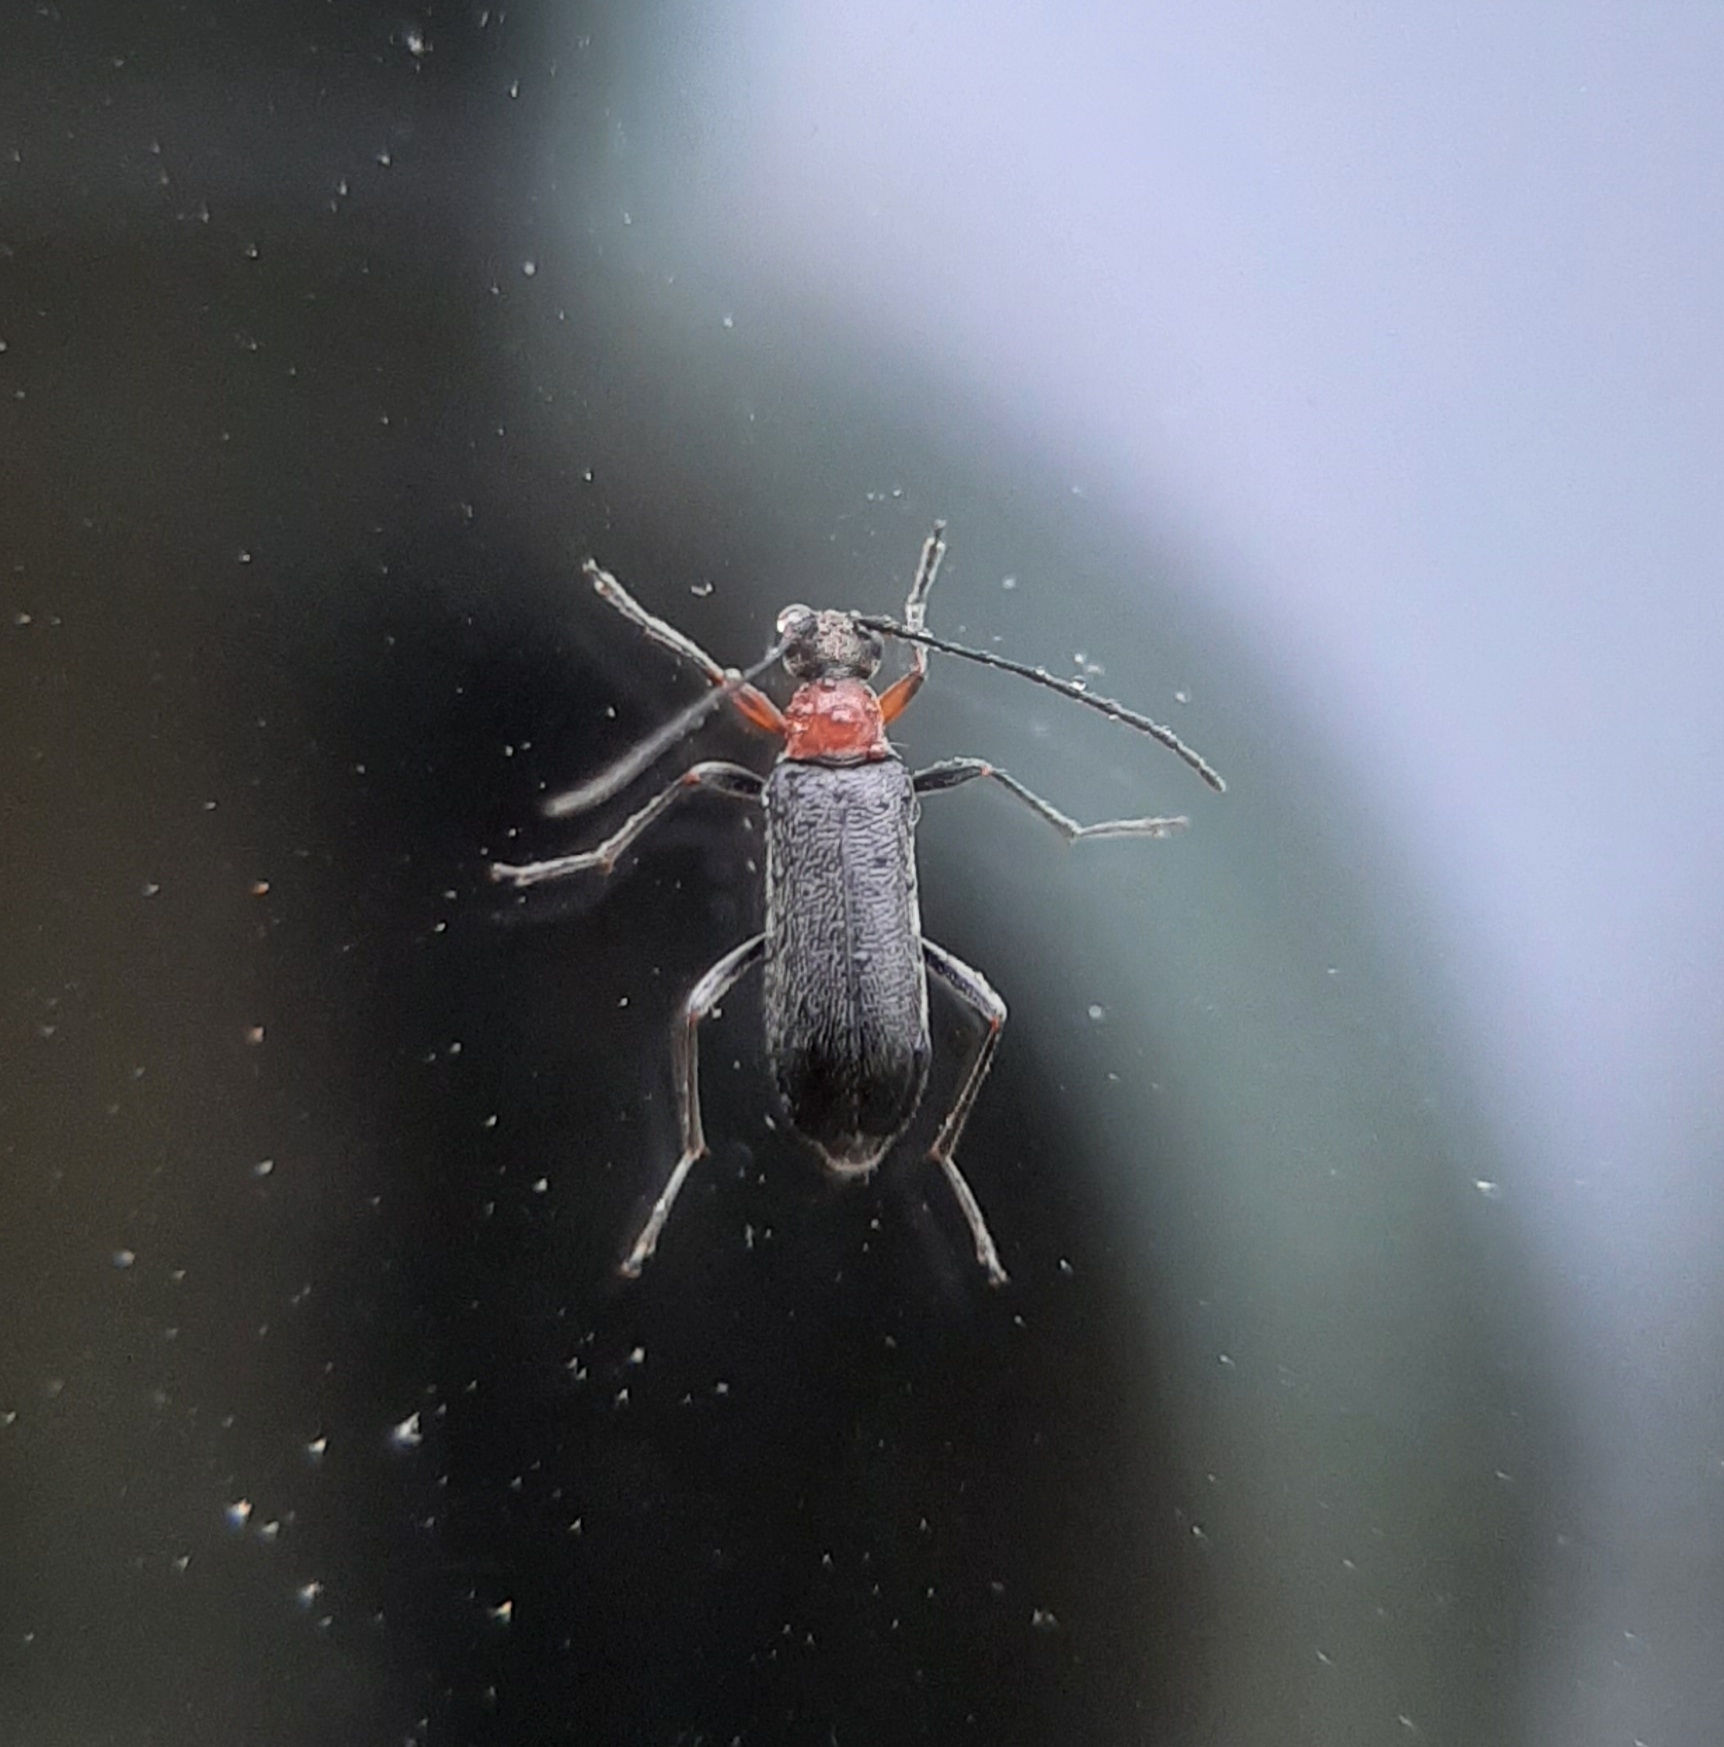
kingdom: Animalia
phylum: Arthropoda
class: Insecta
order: Coleoptera
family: Cerambycidae
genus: Grammoptera
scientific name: Grammoptera haematites
